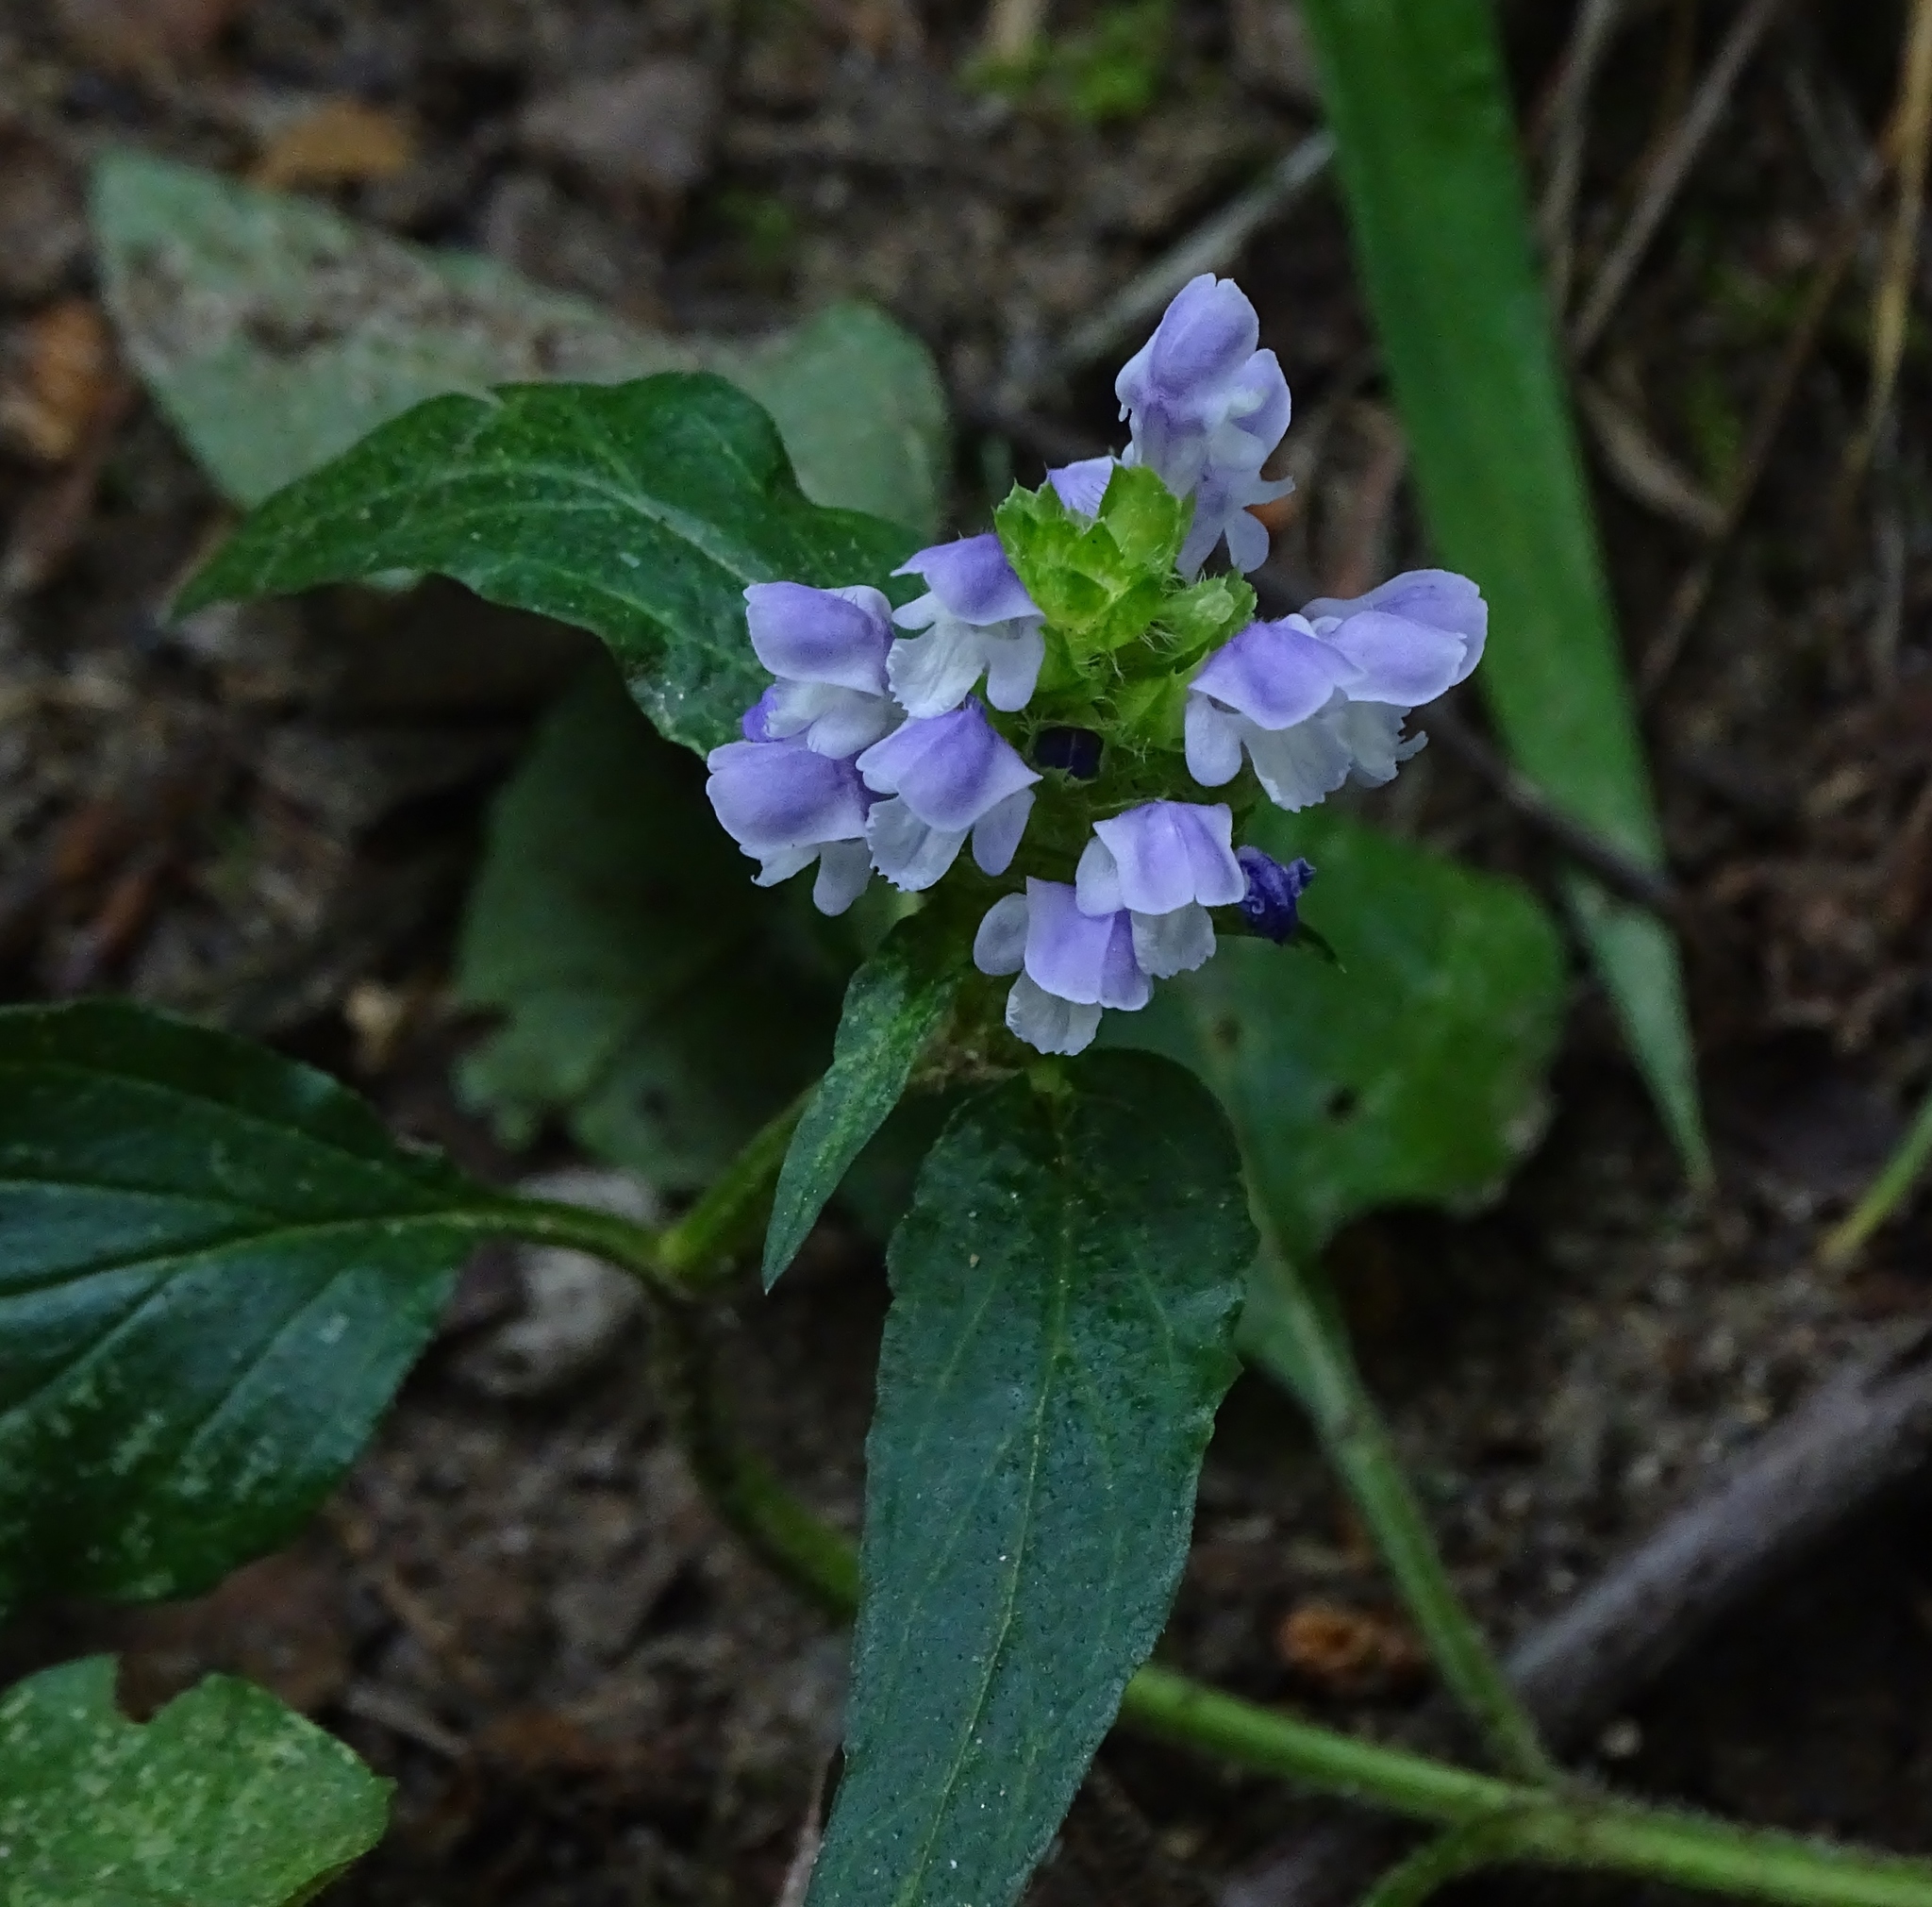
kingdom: Plantae
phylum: Tracheophyta
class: Magnoliopsida
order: Lamiales
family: Lamiaceae
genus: Prunella
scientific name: Prunella vulgaris
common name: Heal-all
